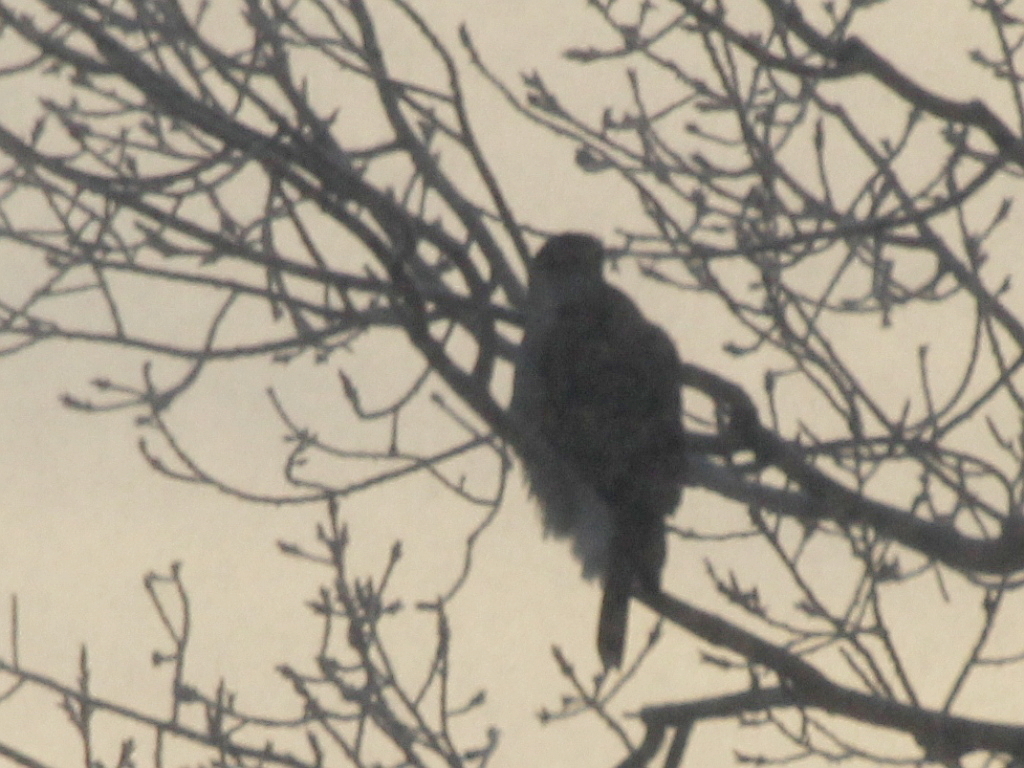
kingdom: Animalia
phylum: Chordata
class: Aves
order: Accipitriformes
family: Accipitridae
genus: Accipiter
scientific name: Accipiter gentilis
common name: Northern goshawk
